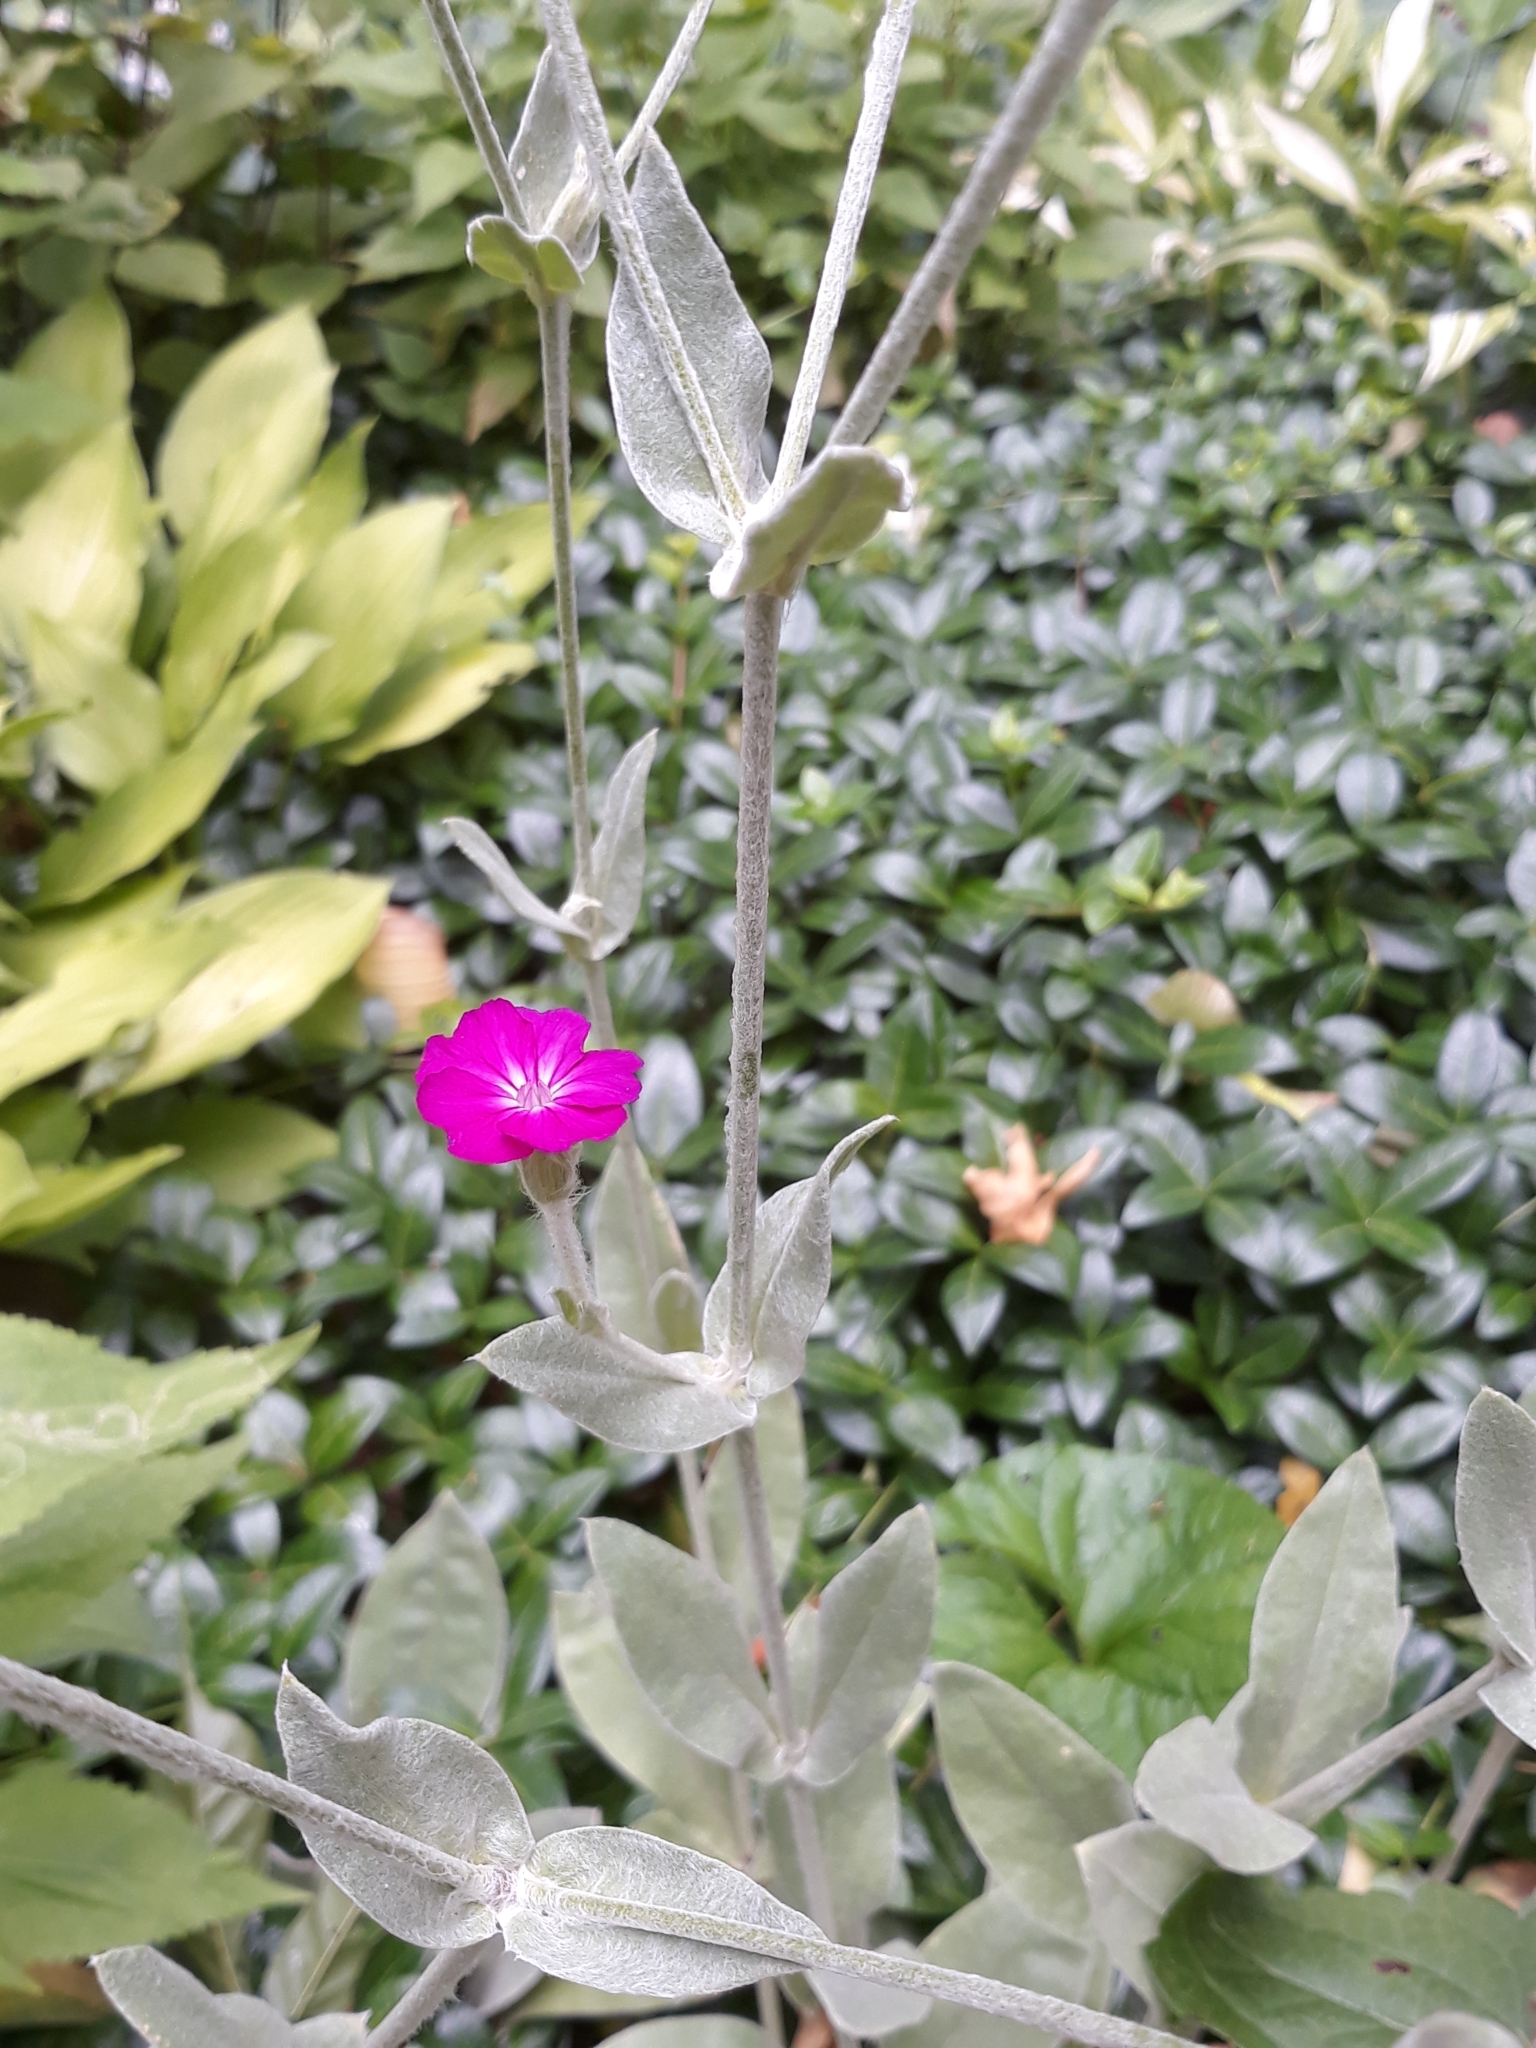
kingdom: Plantae
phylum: Tracheophyta
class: Magnoliopsida
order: Caryophyllales
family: Caryophyllaceae
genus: Silene
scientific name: Silene coronaria
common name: Rose campion
